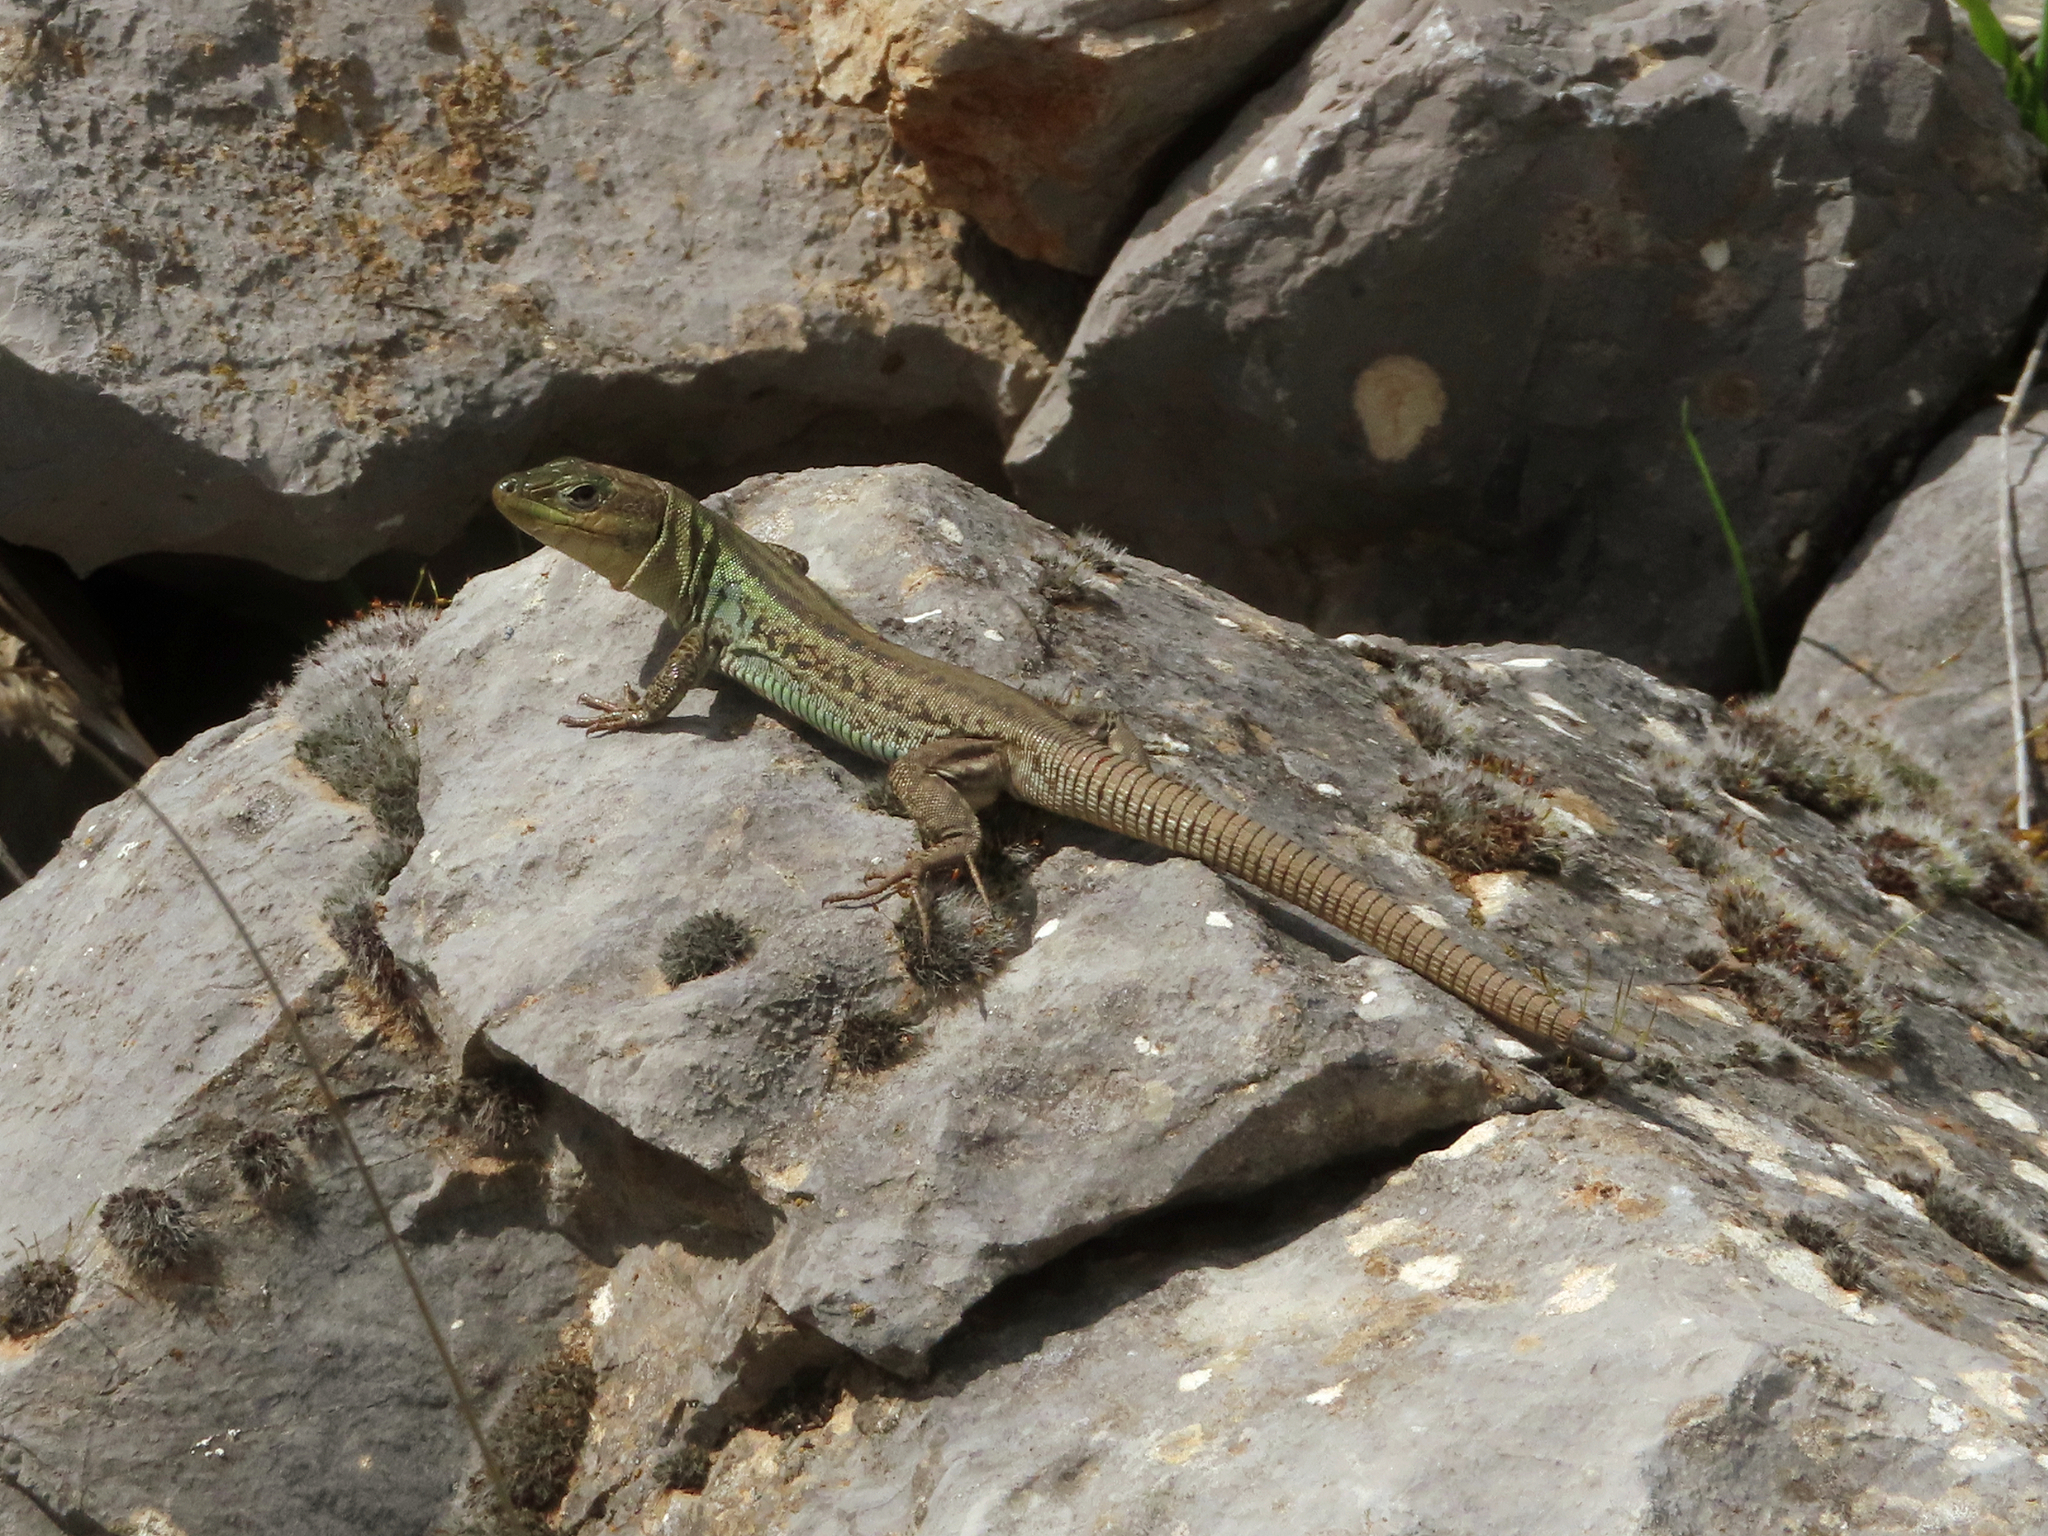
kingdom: Animalia
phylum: Chordata
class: Squamata
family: Lacertidae
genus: Podarcis
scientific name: Podarcis peloponnesiacus
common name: Peloponnese wall lizard
